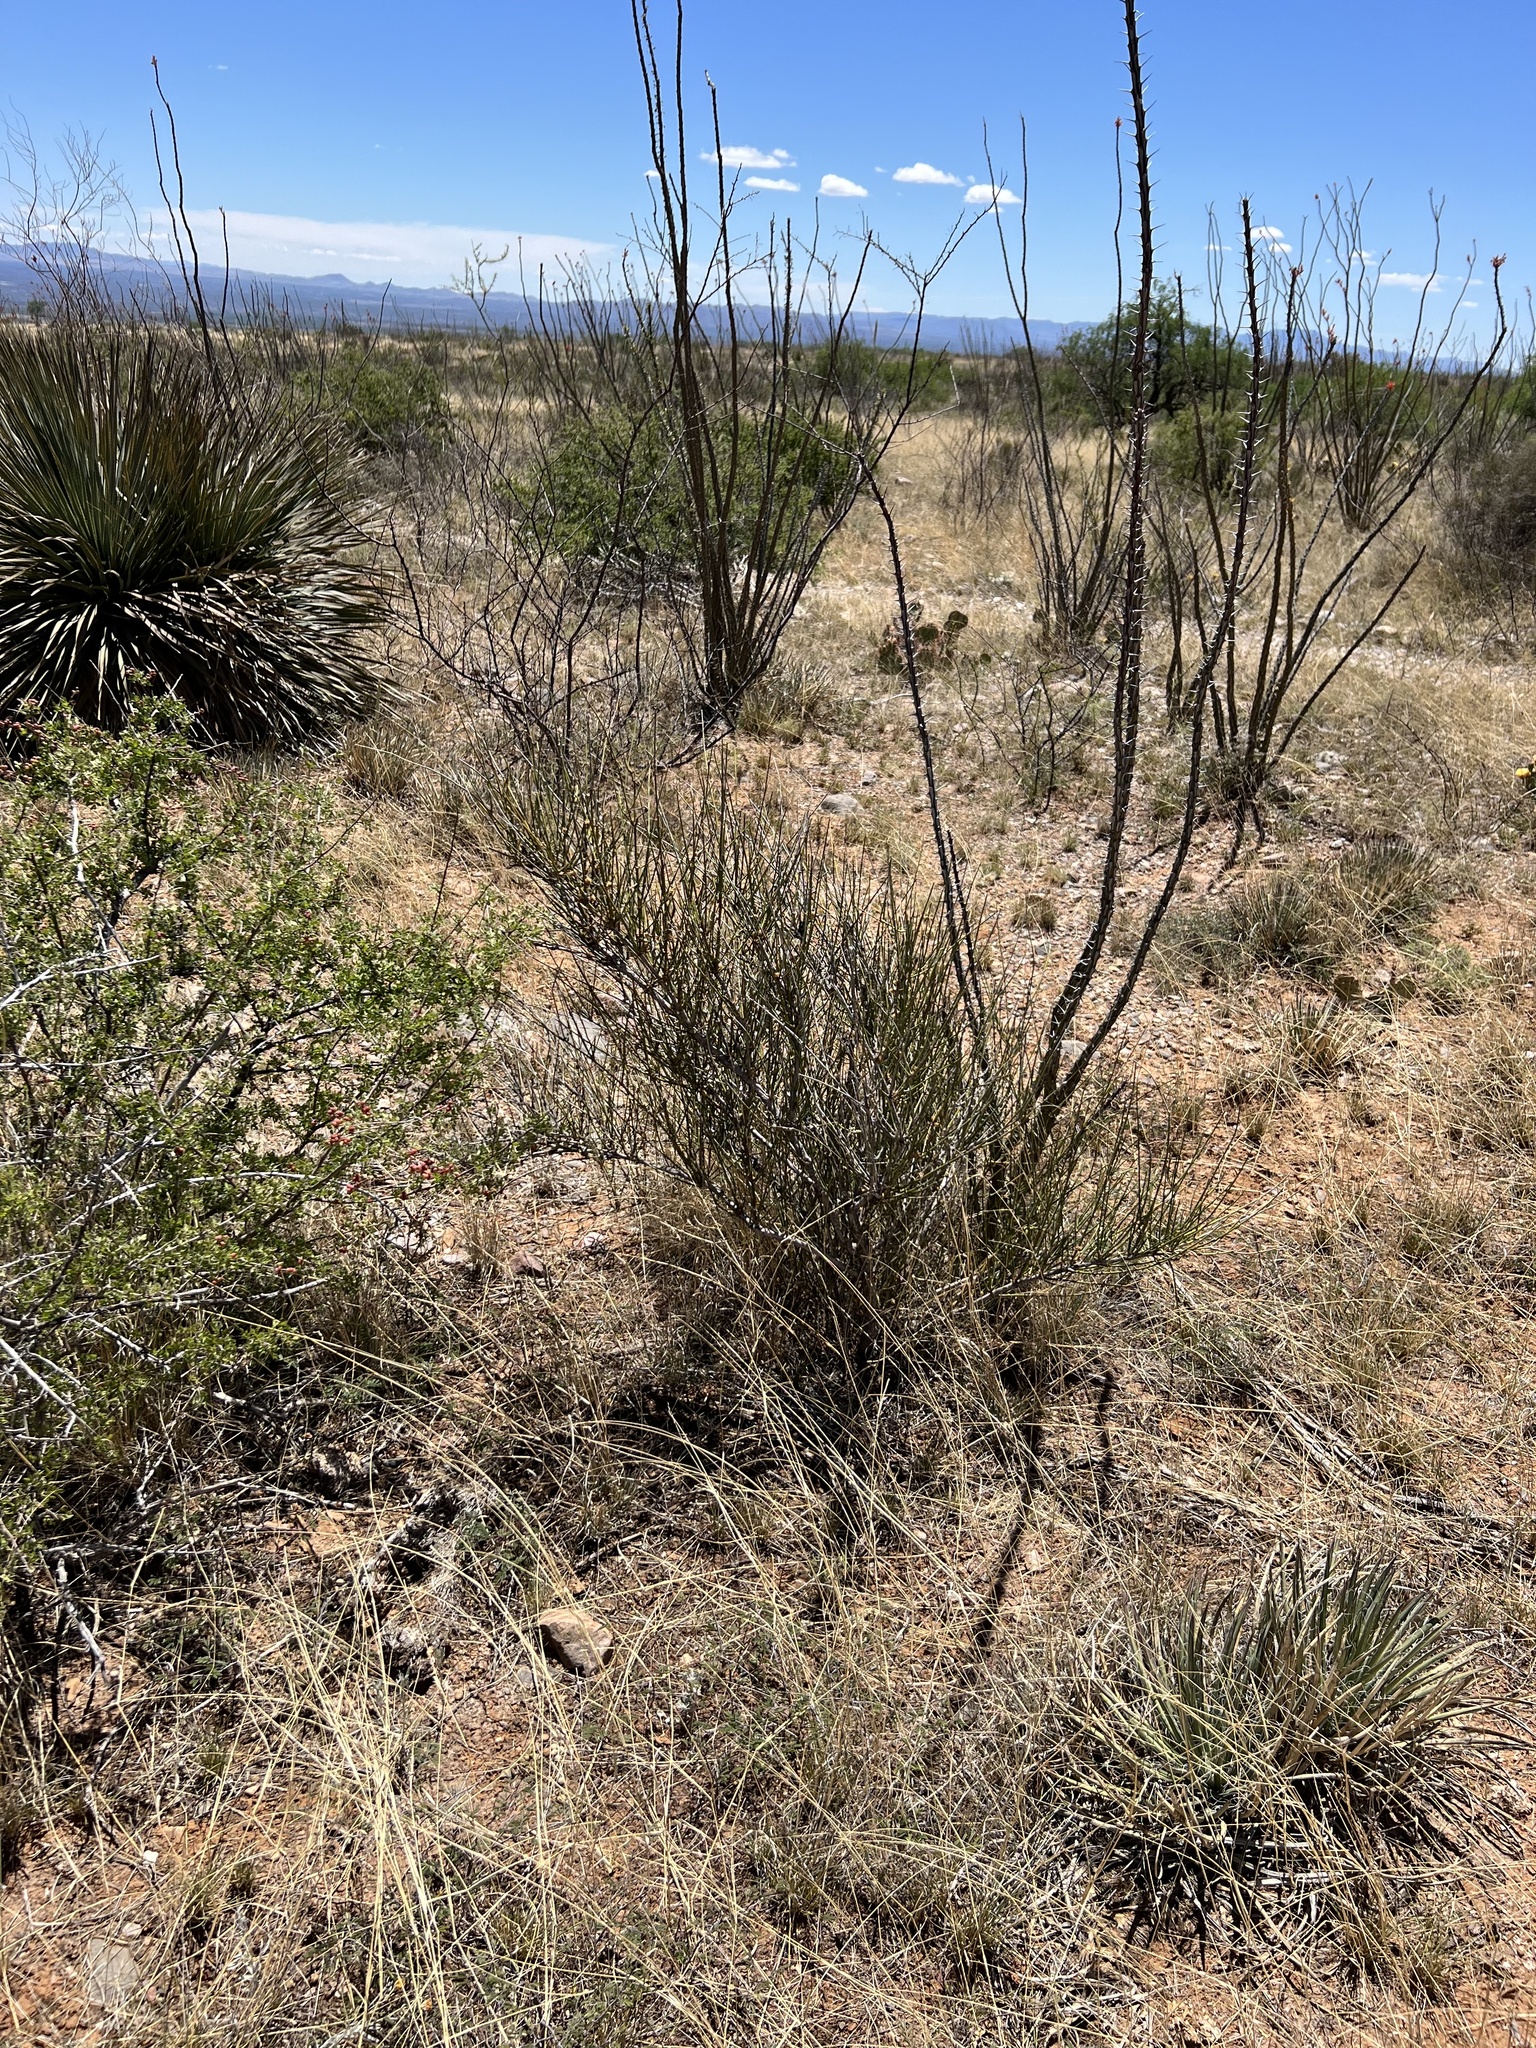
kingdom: Plantae
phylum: Tracheophyta
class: Gnetopsida
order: Ephedrales
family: Ephedraceae
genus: Ephedra
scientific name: Ephedra trifurca
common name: Mexican-tea
